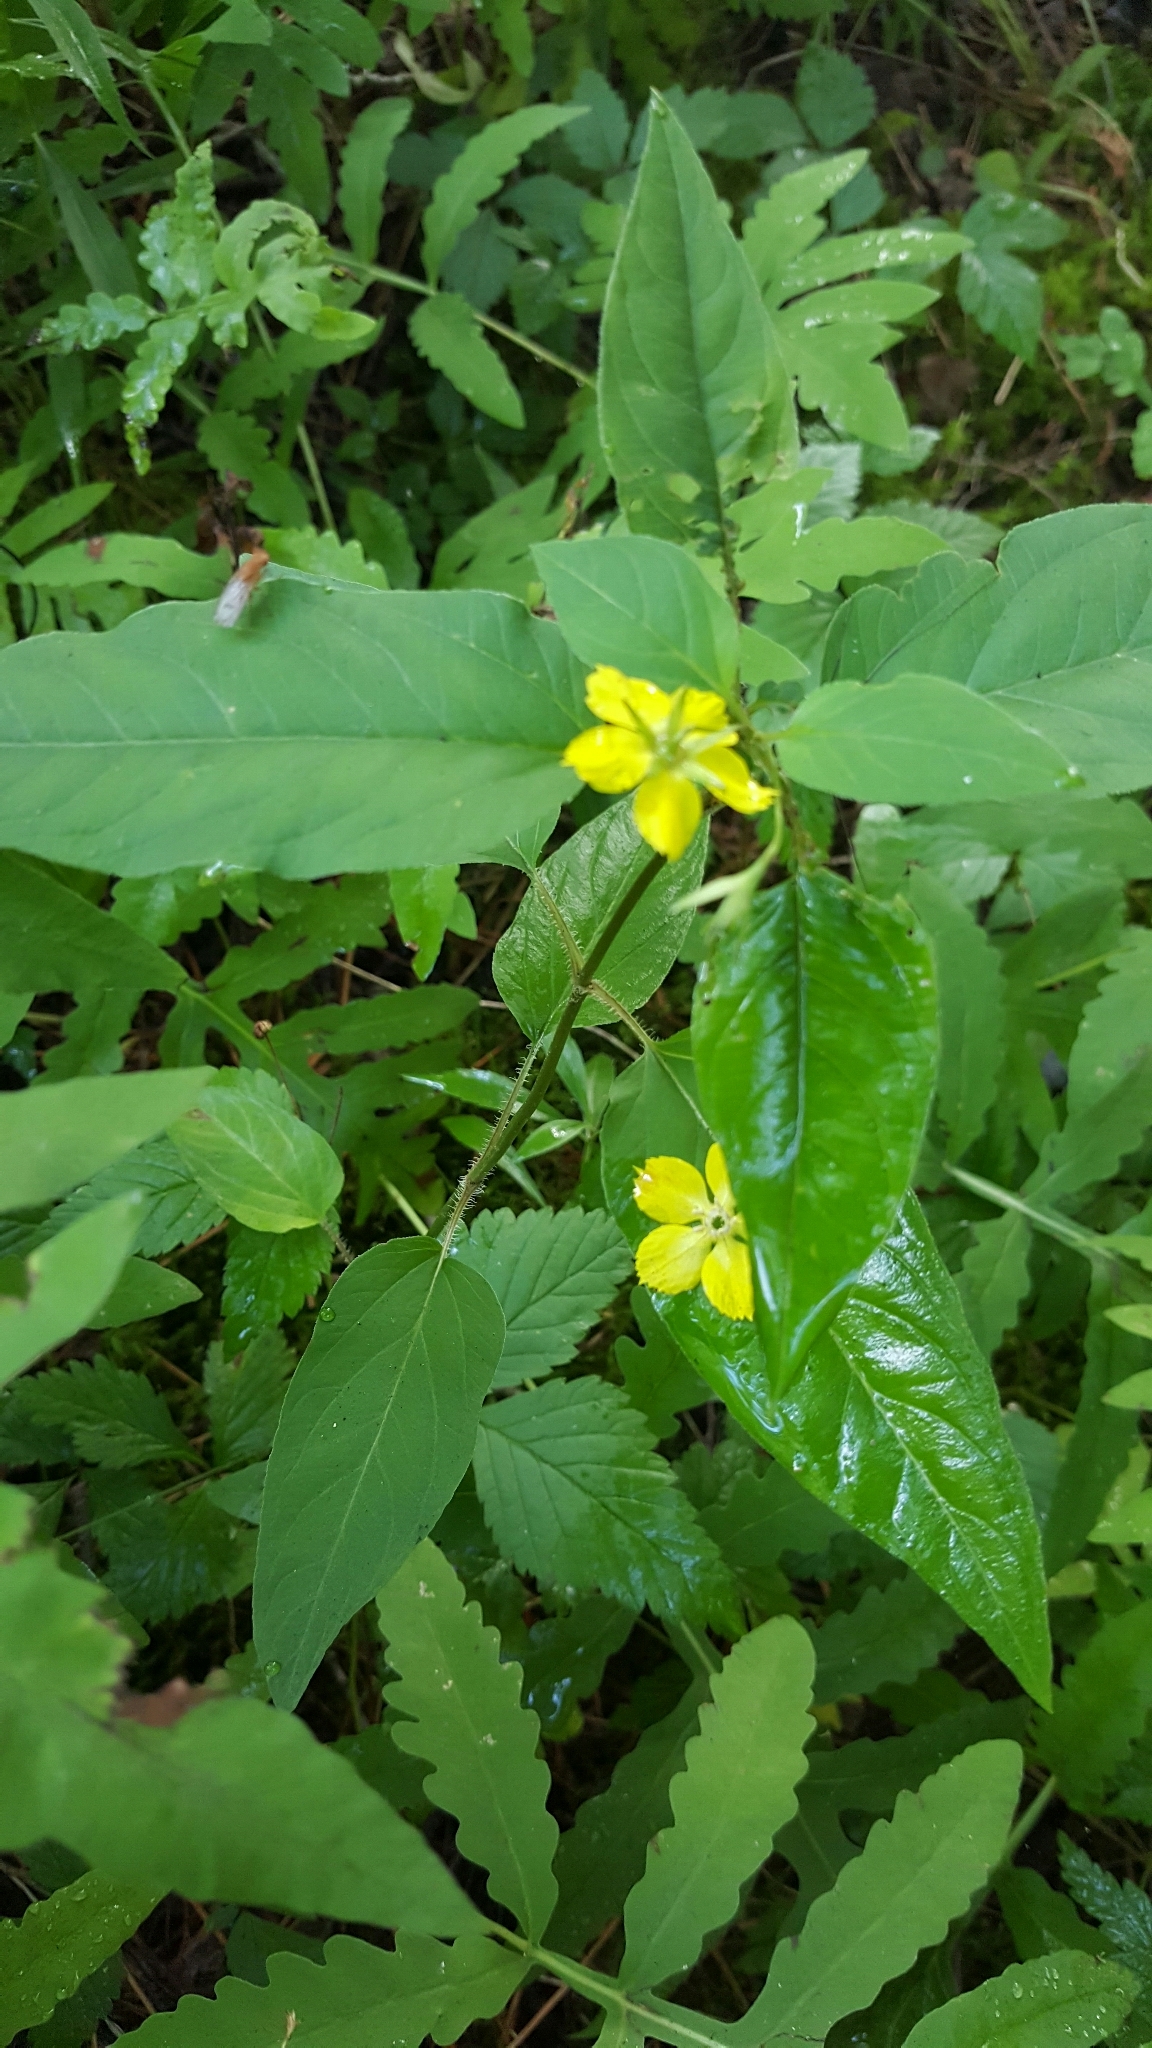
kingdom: Plantae
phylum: Tracheophyta
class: Magnoliopsida
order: Ericales
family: Primulaceae
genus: Lysimachia
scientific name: Lysimachia ciliata
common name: Fringed loosestrife
